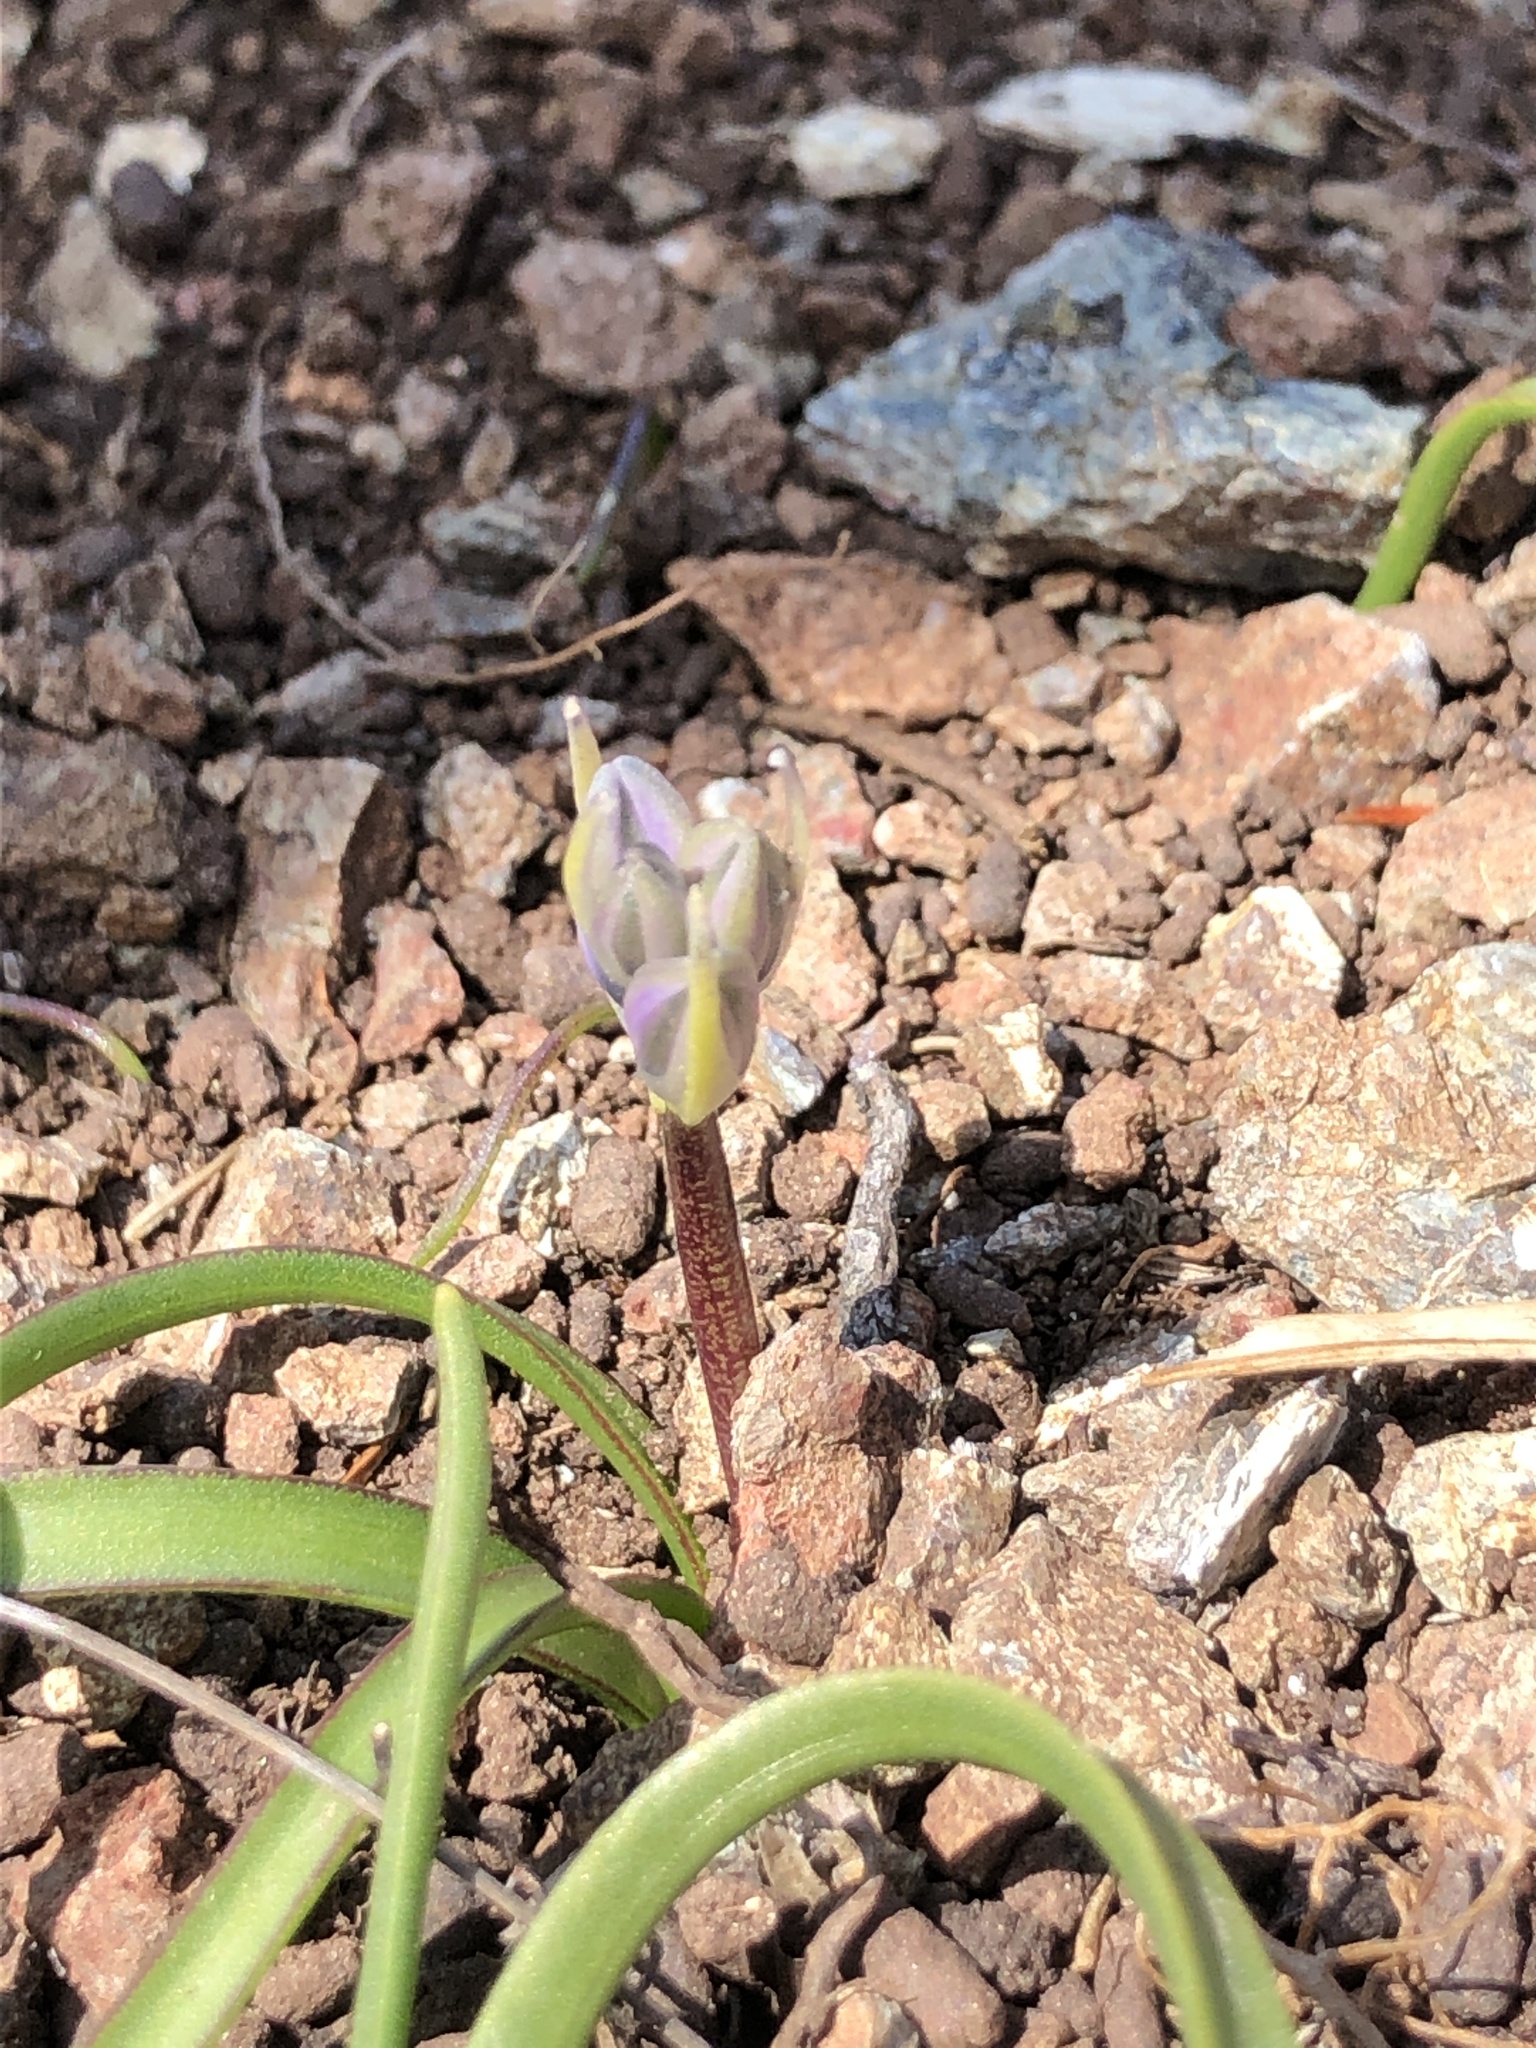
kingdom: Plantae
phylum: Tracheophyta
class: Liliopsida
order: Asparagales
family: Asparagaceae
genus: Scilla
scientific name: Scilla verna
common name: Spring squill
